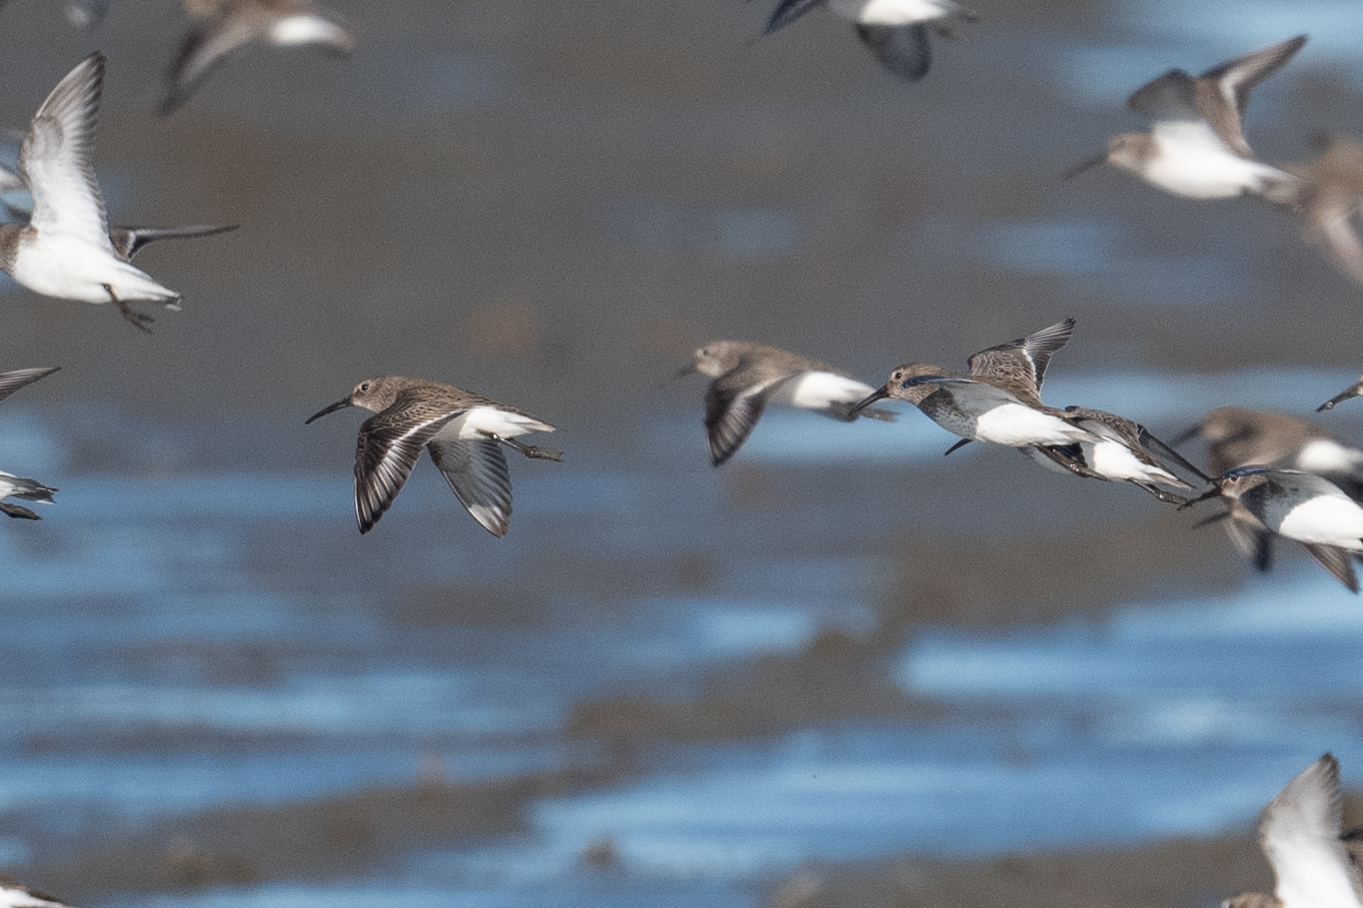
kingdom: Animalia
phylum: Chordata
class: Aves
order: Charadriiformes
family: Scolopacidae
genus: Calidris
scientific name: Calidris alpina
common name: Dunlin
